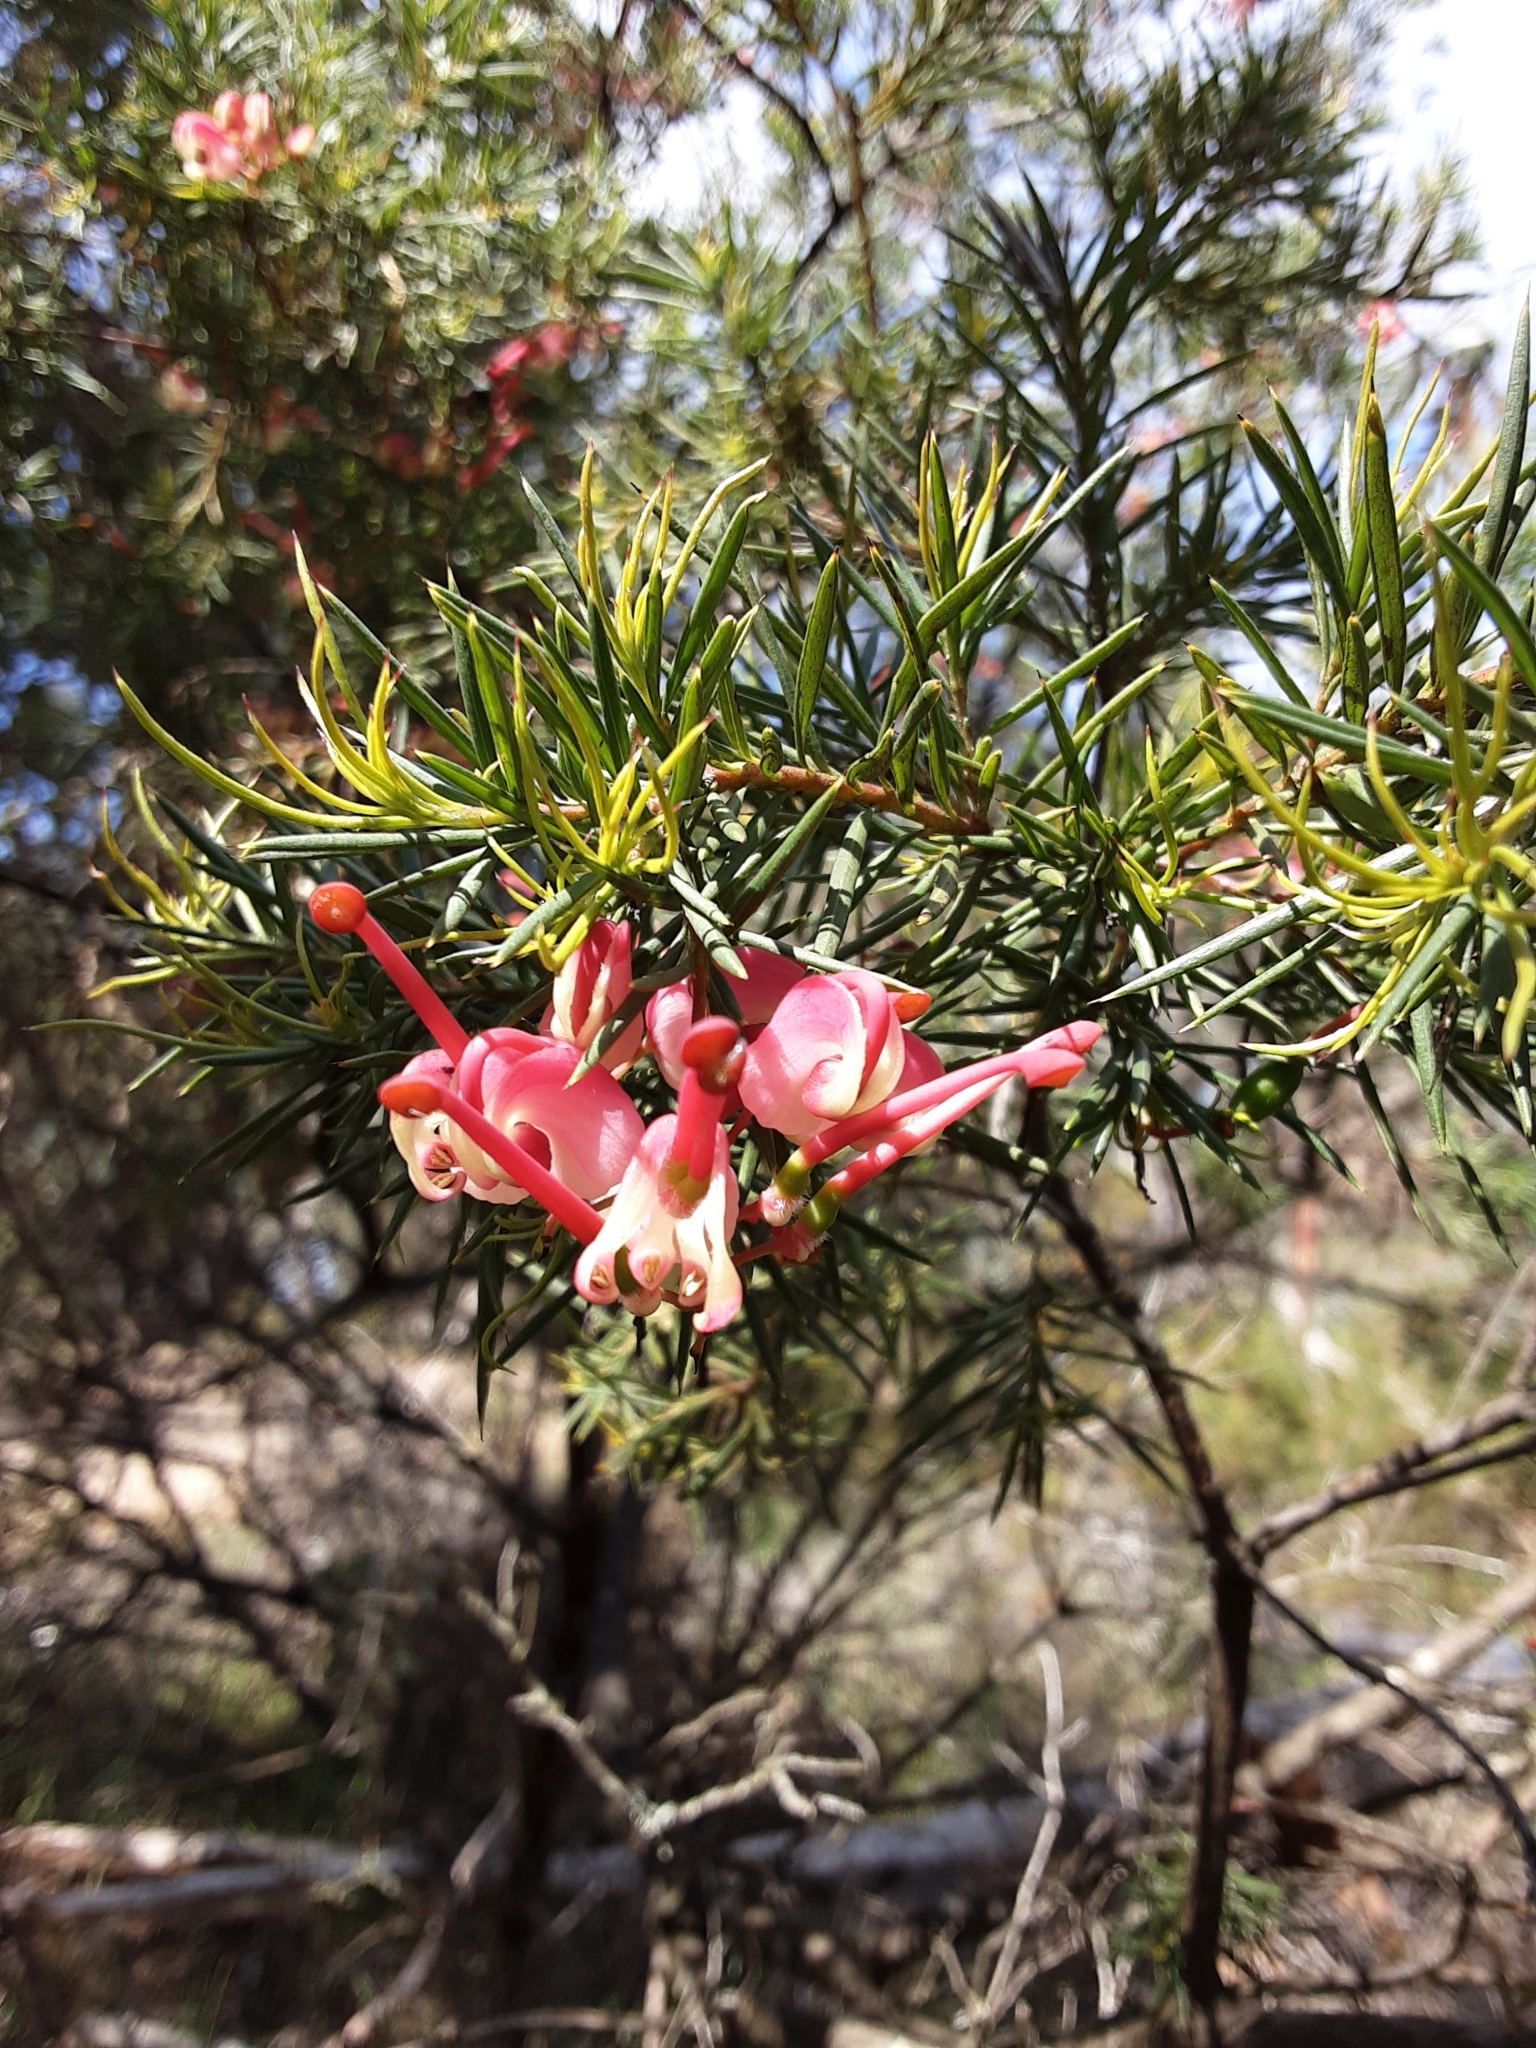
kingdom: Plantae
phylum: Tracheophyta
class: Magnoliopsida
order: Proteales
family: Proteaceae
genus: Grevillea
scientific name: Grevillea rosmarinifolia
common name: Rosemary grevillea
